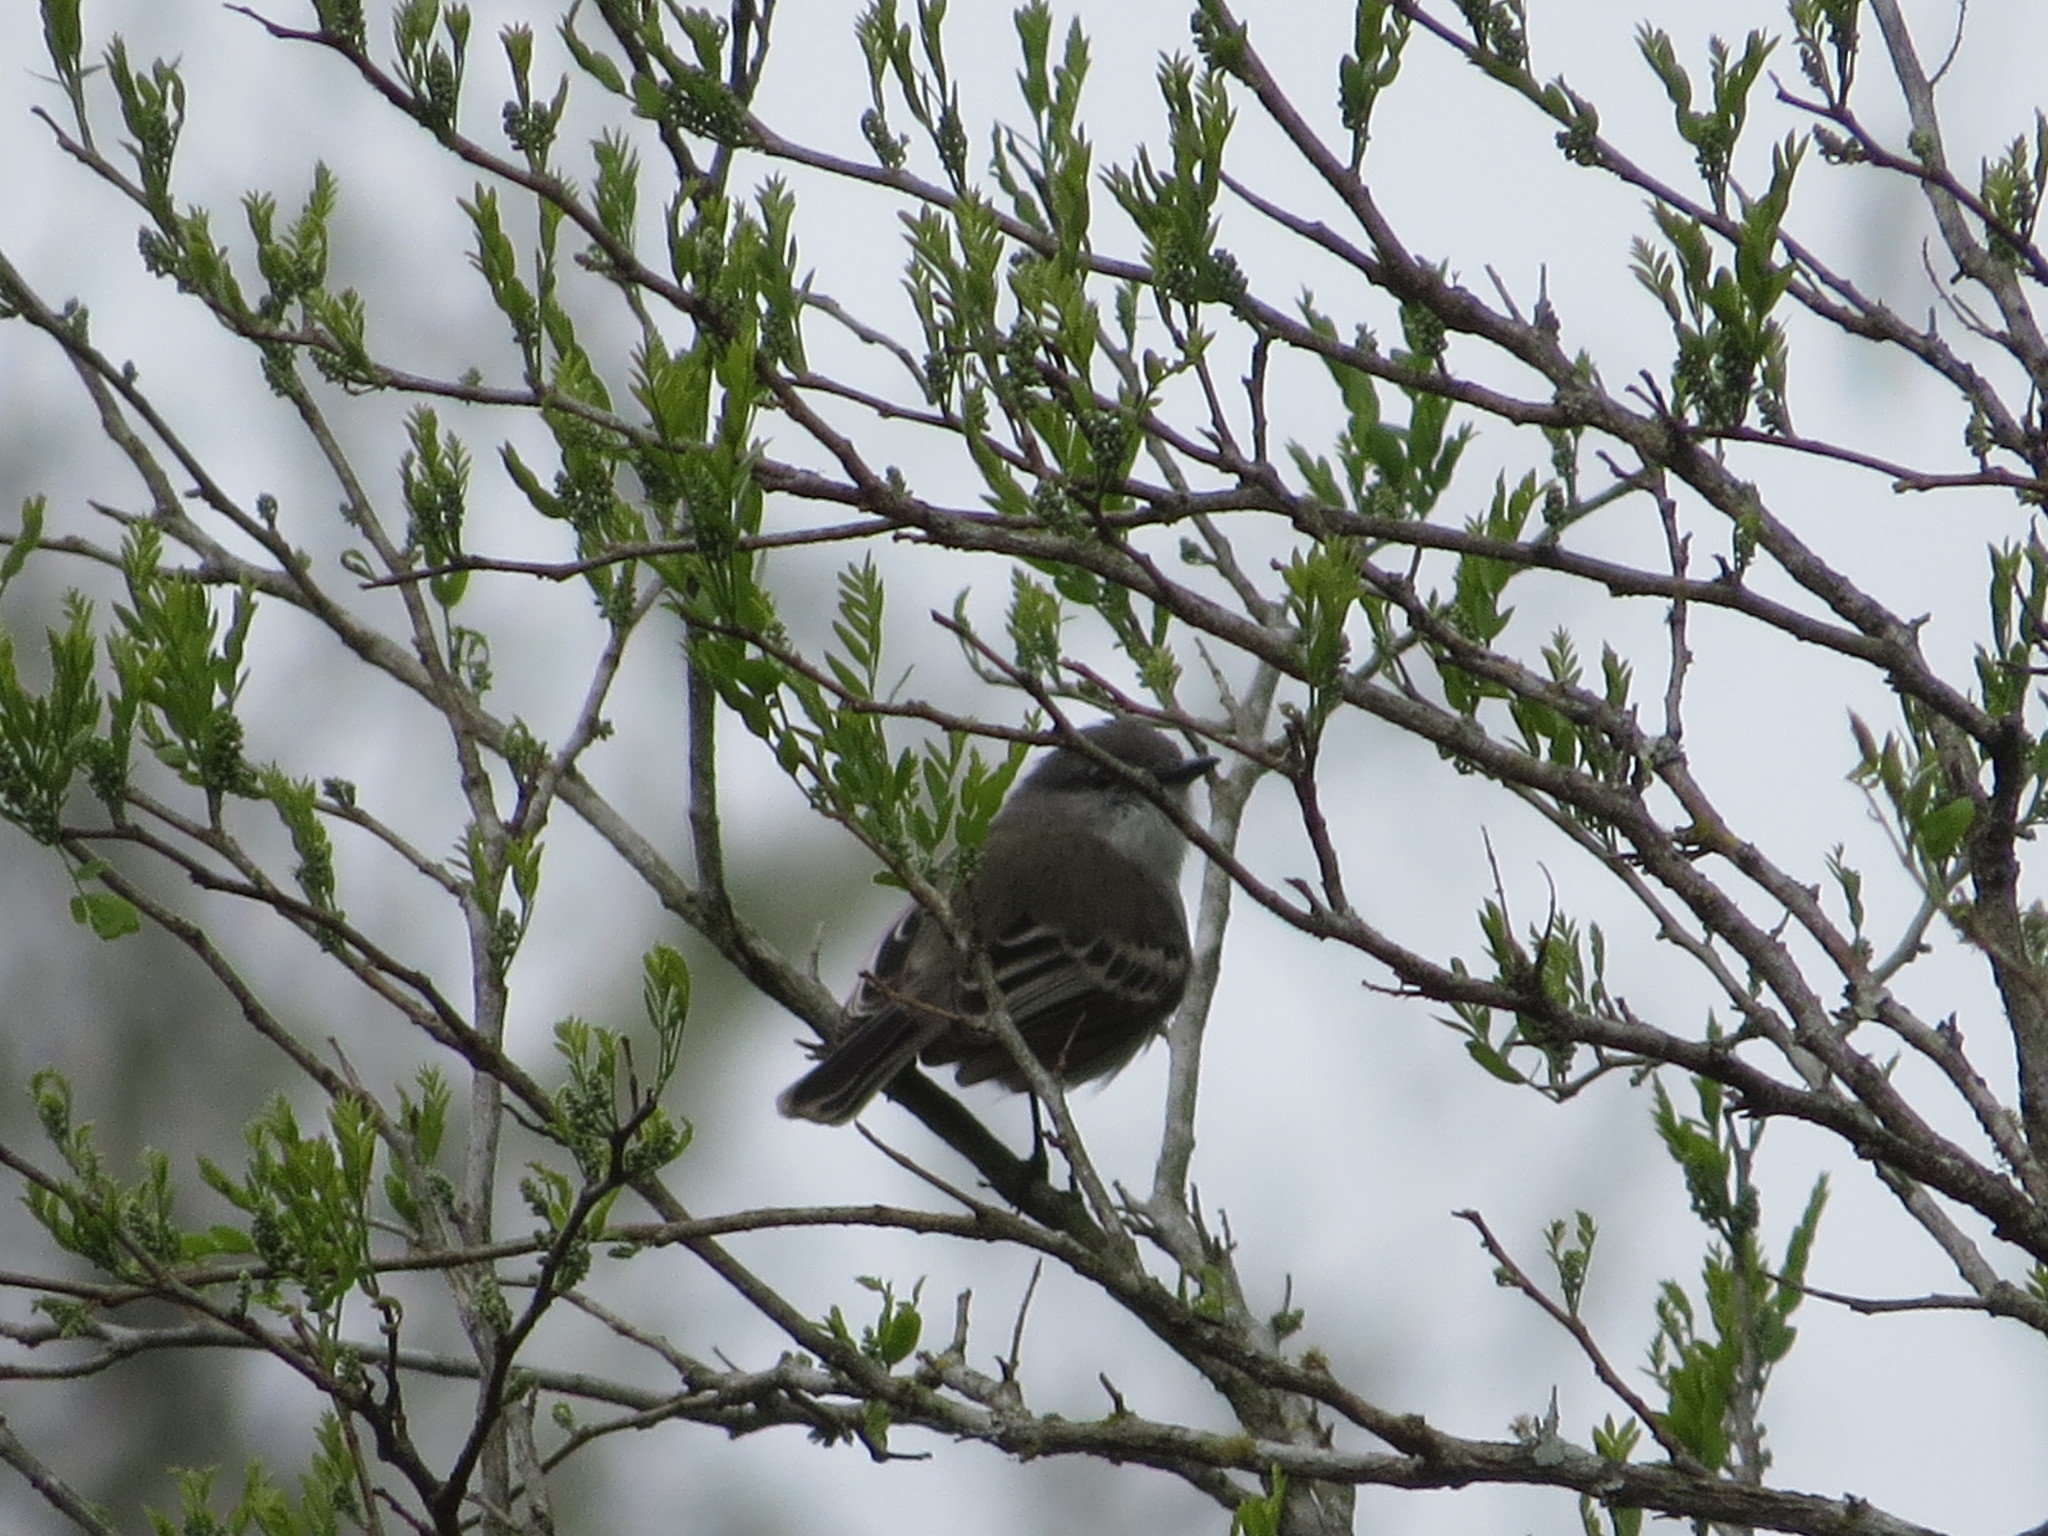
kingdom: Animalia
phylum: Chordata
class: Aves
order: Passeriformes
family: Tyrannidae
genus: Suiriri
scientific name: Suiriri suiriri
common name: Suiriri flycatcher
